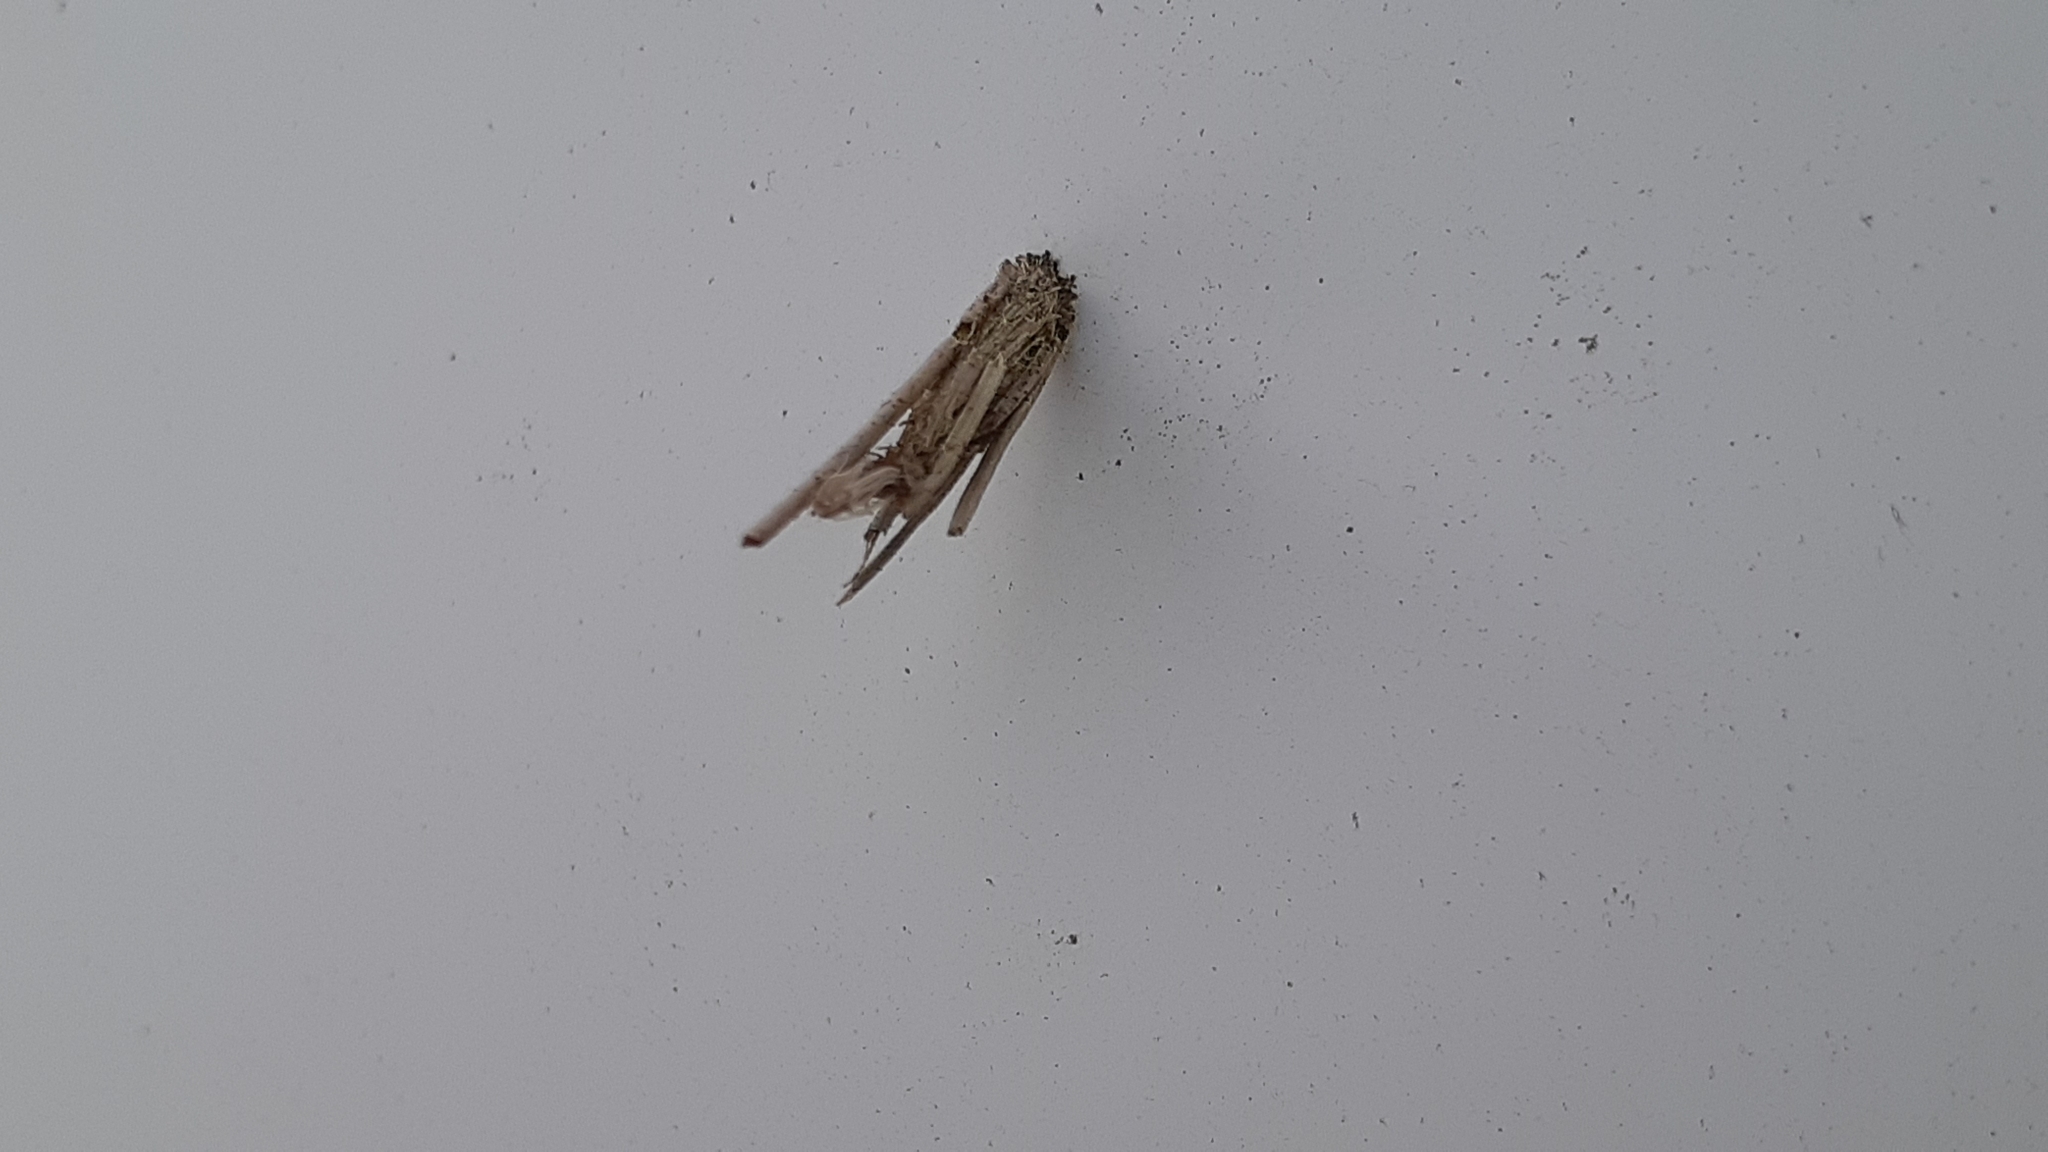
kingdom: Animalia
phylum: Arthropoda
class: Insecta
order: Lepidoptera
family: Psychidae
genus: Psyche
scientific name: Psyche casta
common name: Common sweep
